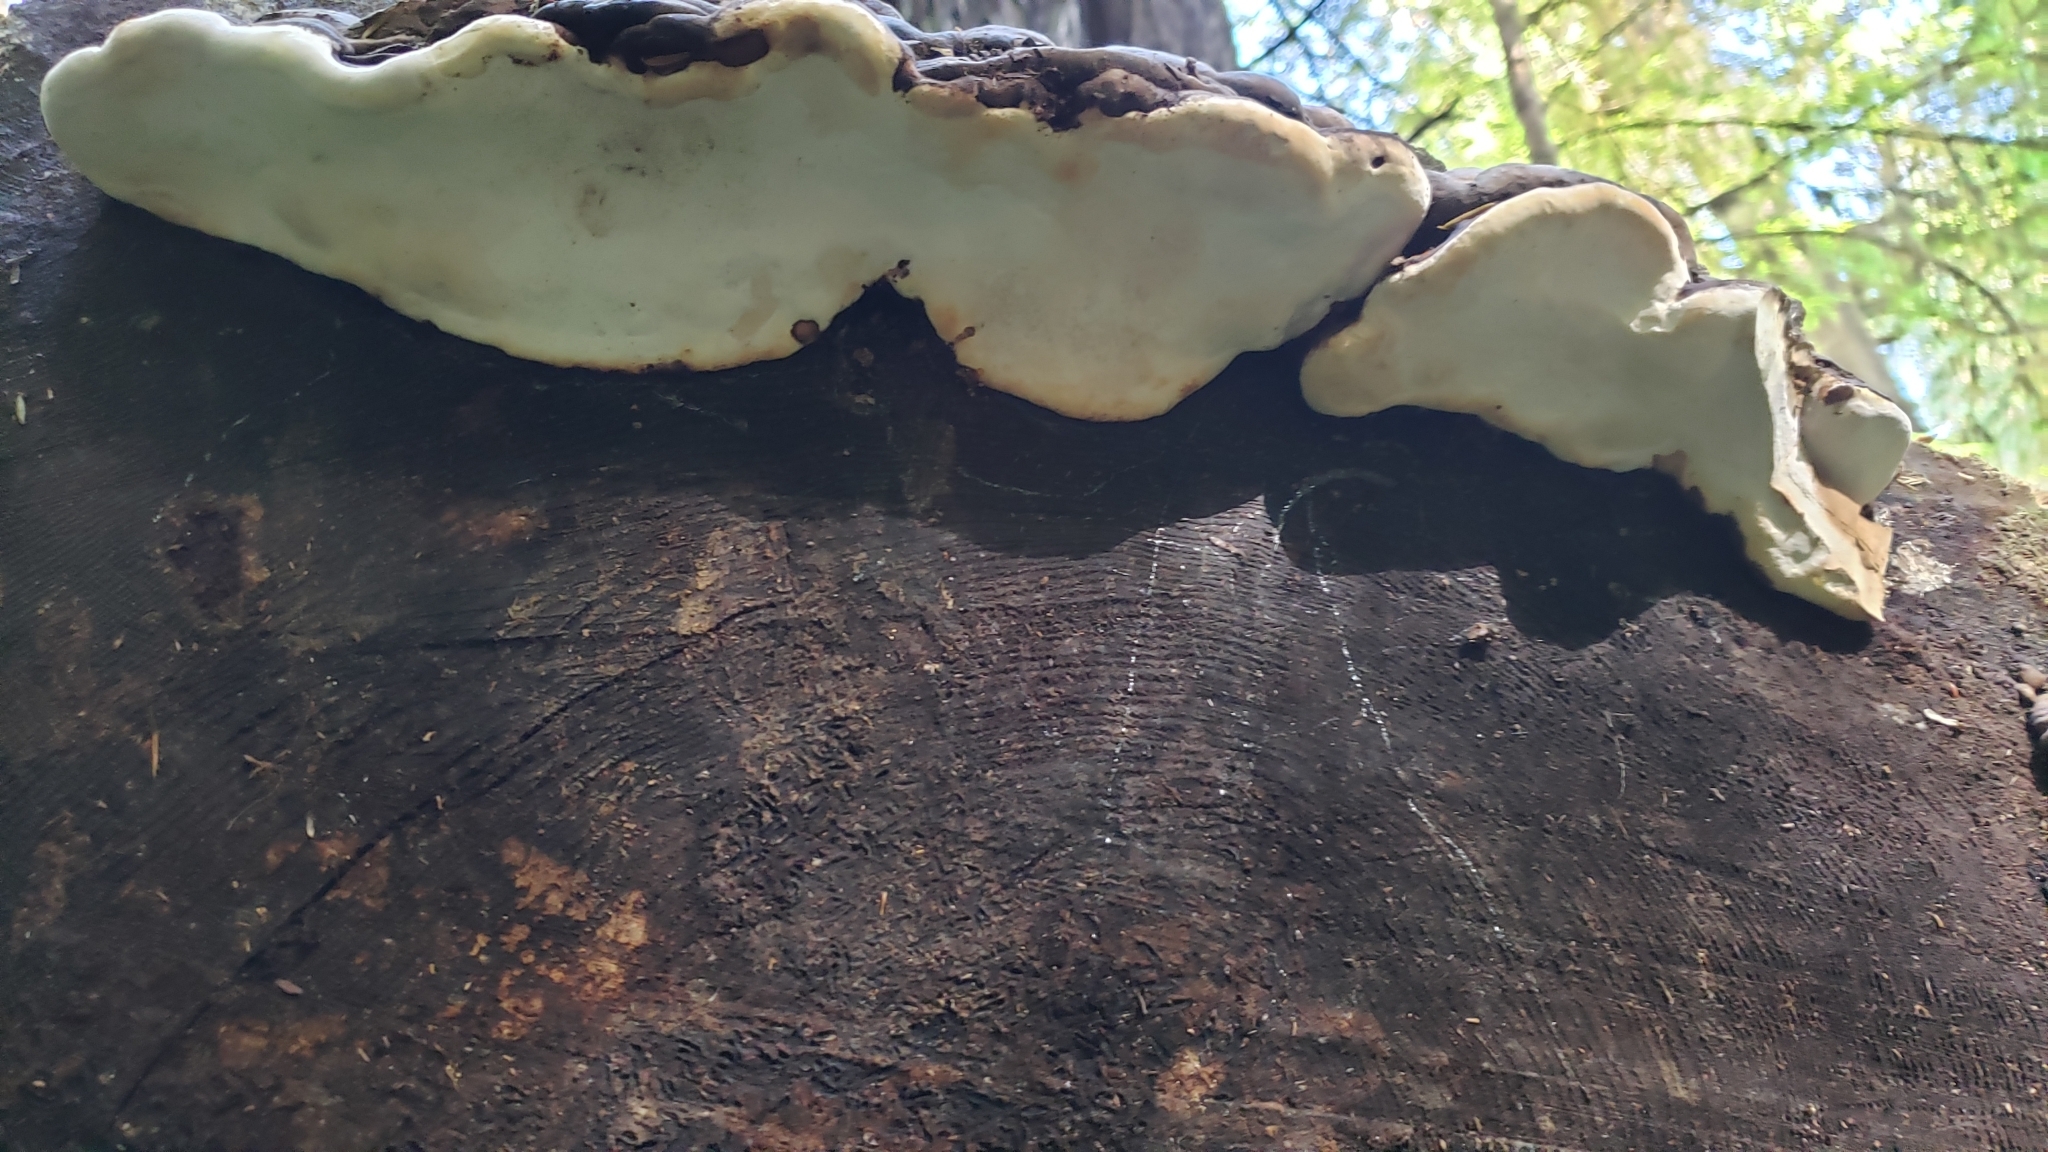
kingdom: Fungi
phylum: Basidiomycota
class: Agaricomycetes
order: Polyporales
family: Fomitopsidaceae
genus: Fomitopsis
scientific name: Fomitopsis ochracea
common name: American brown fomitopsis
